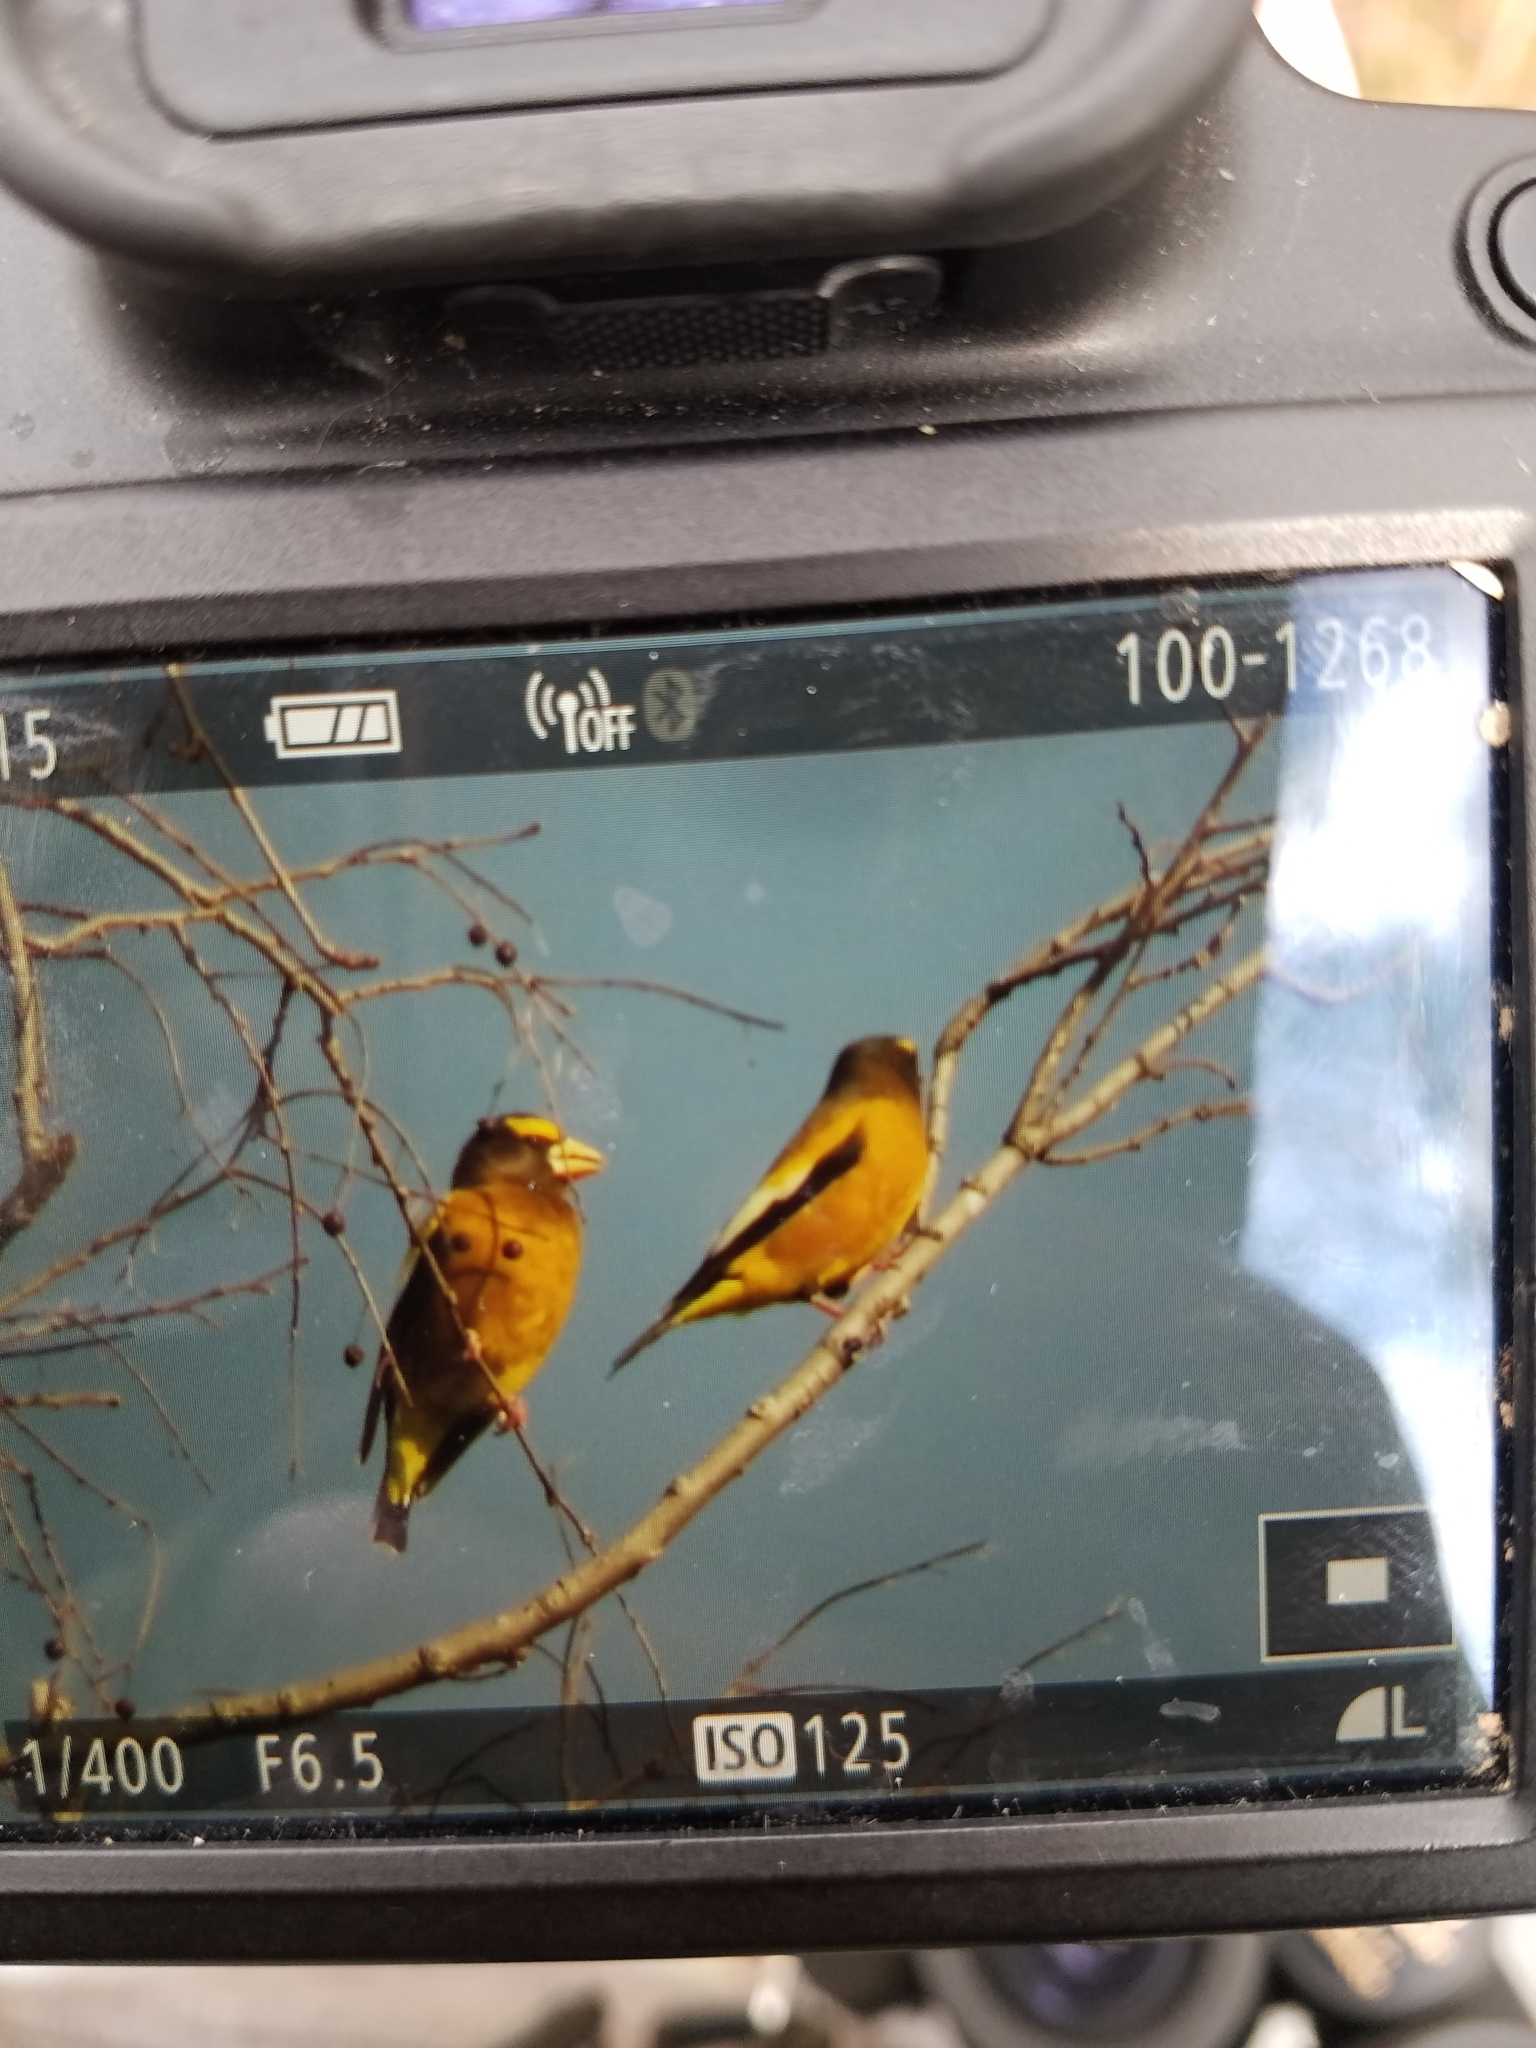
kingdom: Animalia
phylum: Chordata
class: Aves
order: Passeriformes
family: Fringillidae
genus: Hesperiphona
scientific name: Hesperiphona vespertina
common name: Evening grosbeak
